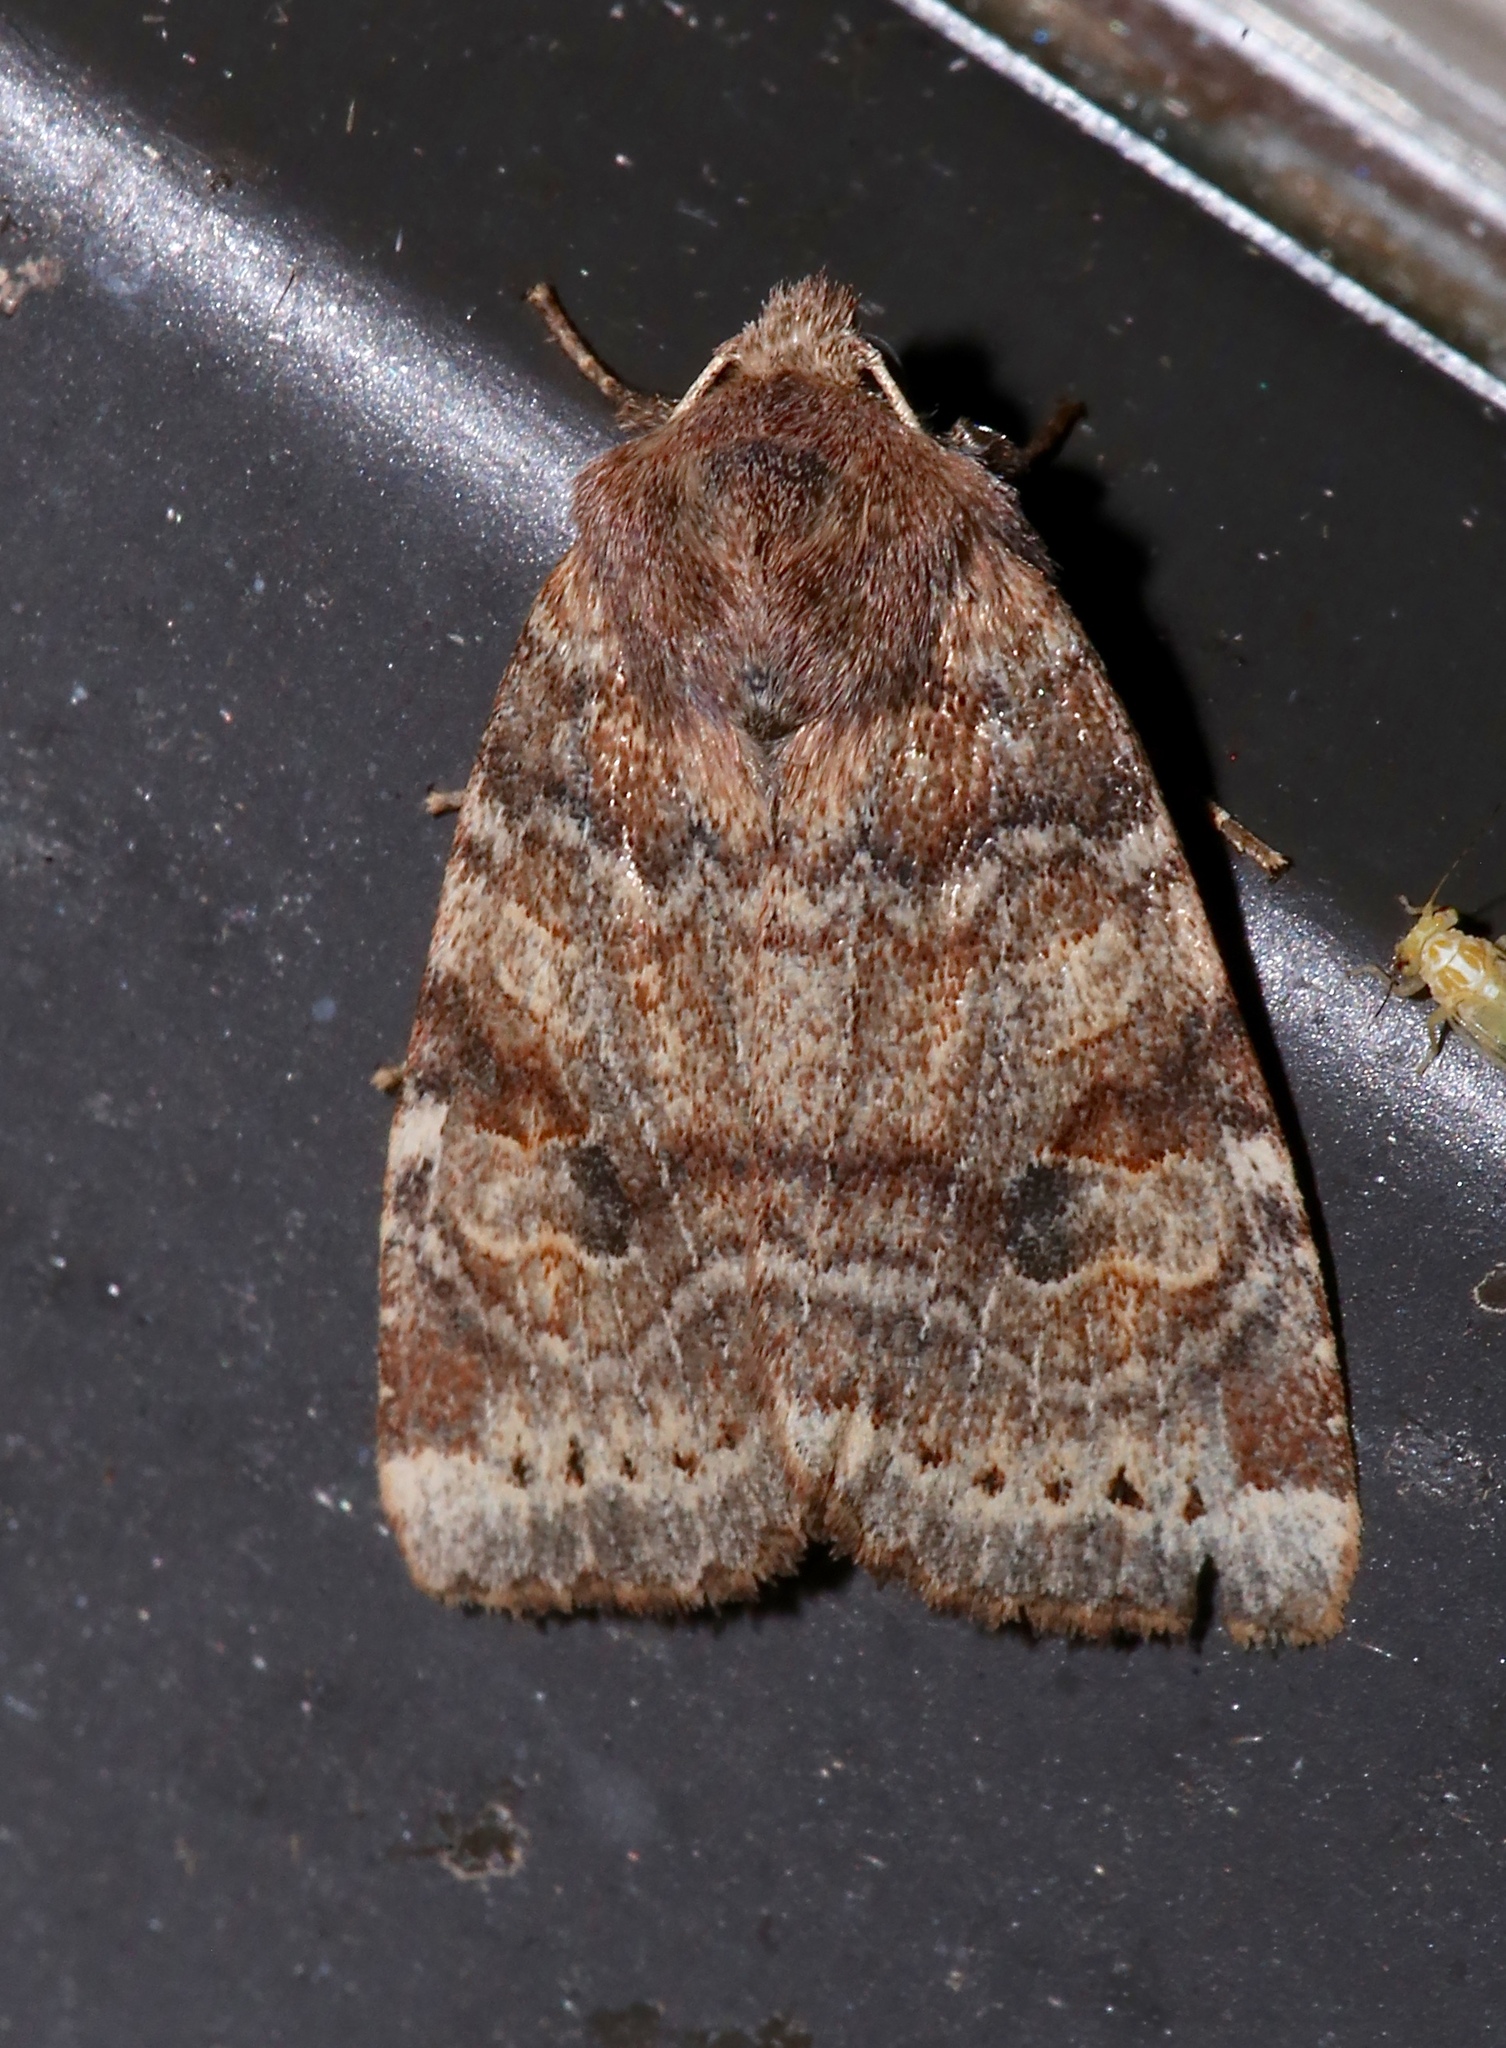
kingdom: Animalia
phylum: Arthropoda
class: Insecta
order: Lepidoptera
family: Noctuidae
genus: Anathix
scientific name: Anathix puta
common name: Puta sallow
